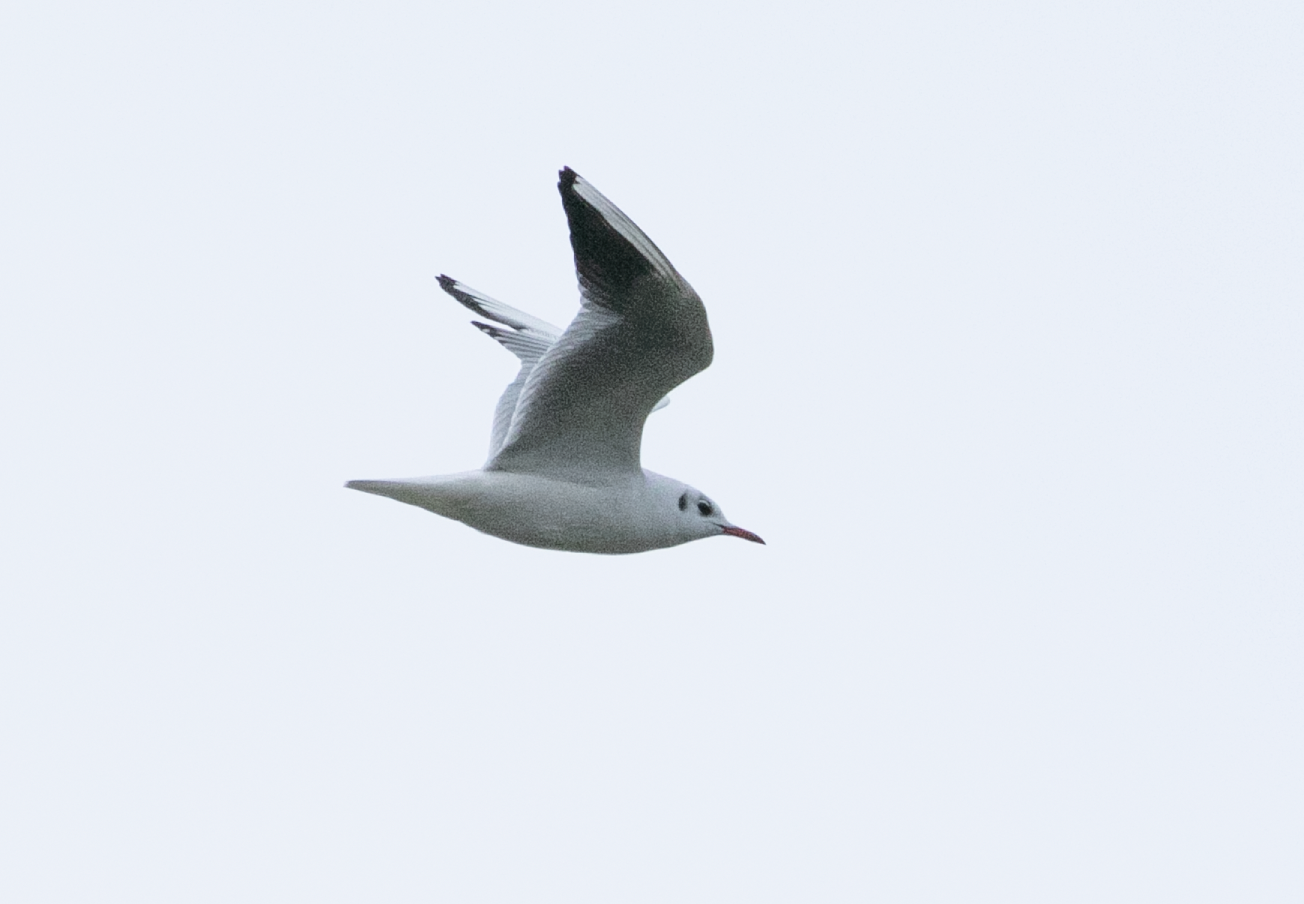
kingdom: Animalia
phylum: Chordata
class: Aves
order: Charadriiformes
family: Laridae
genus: Chroicocephalus
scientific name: Chroicocephalus ridibundus
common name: Black-headed gull
